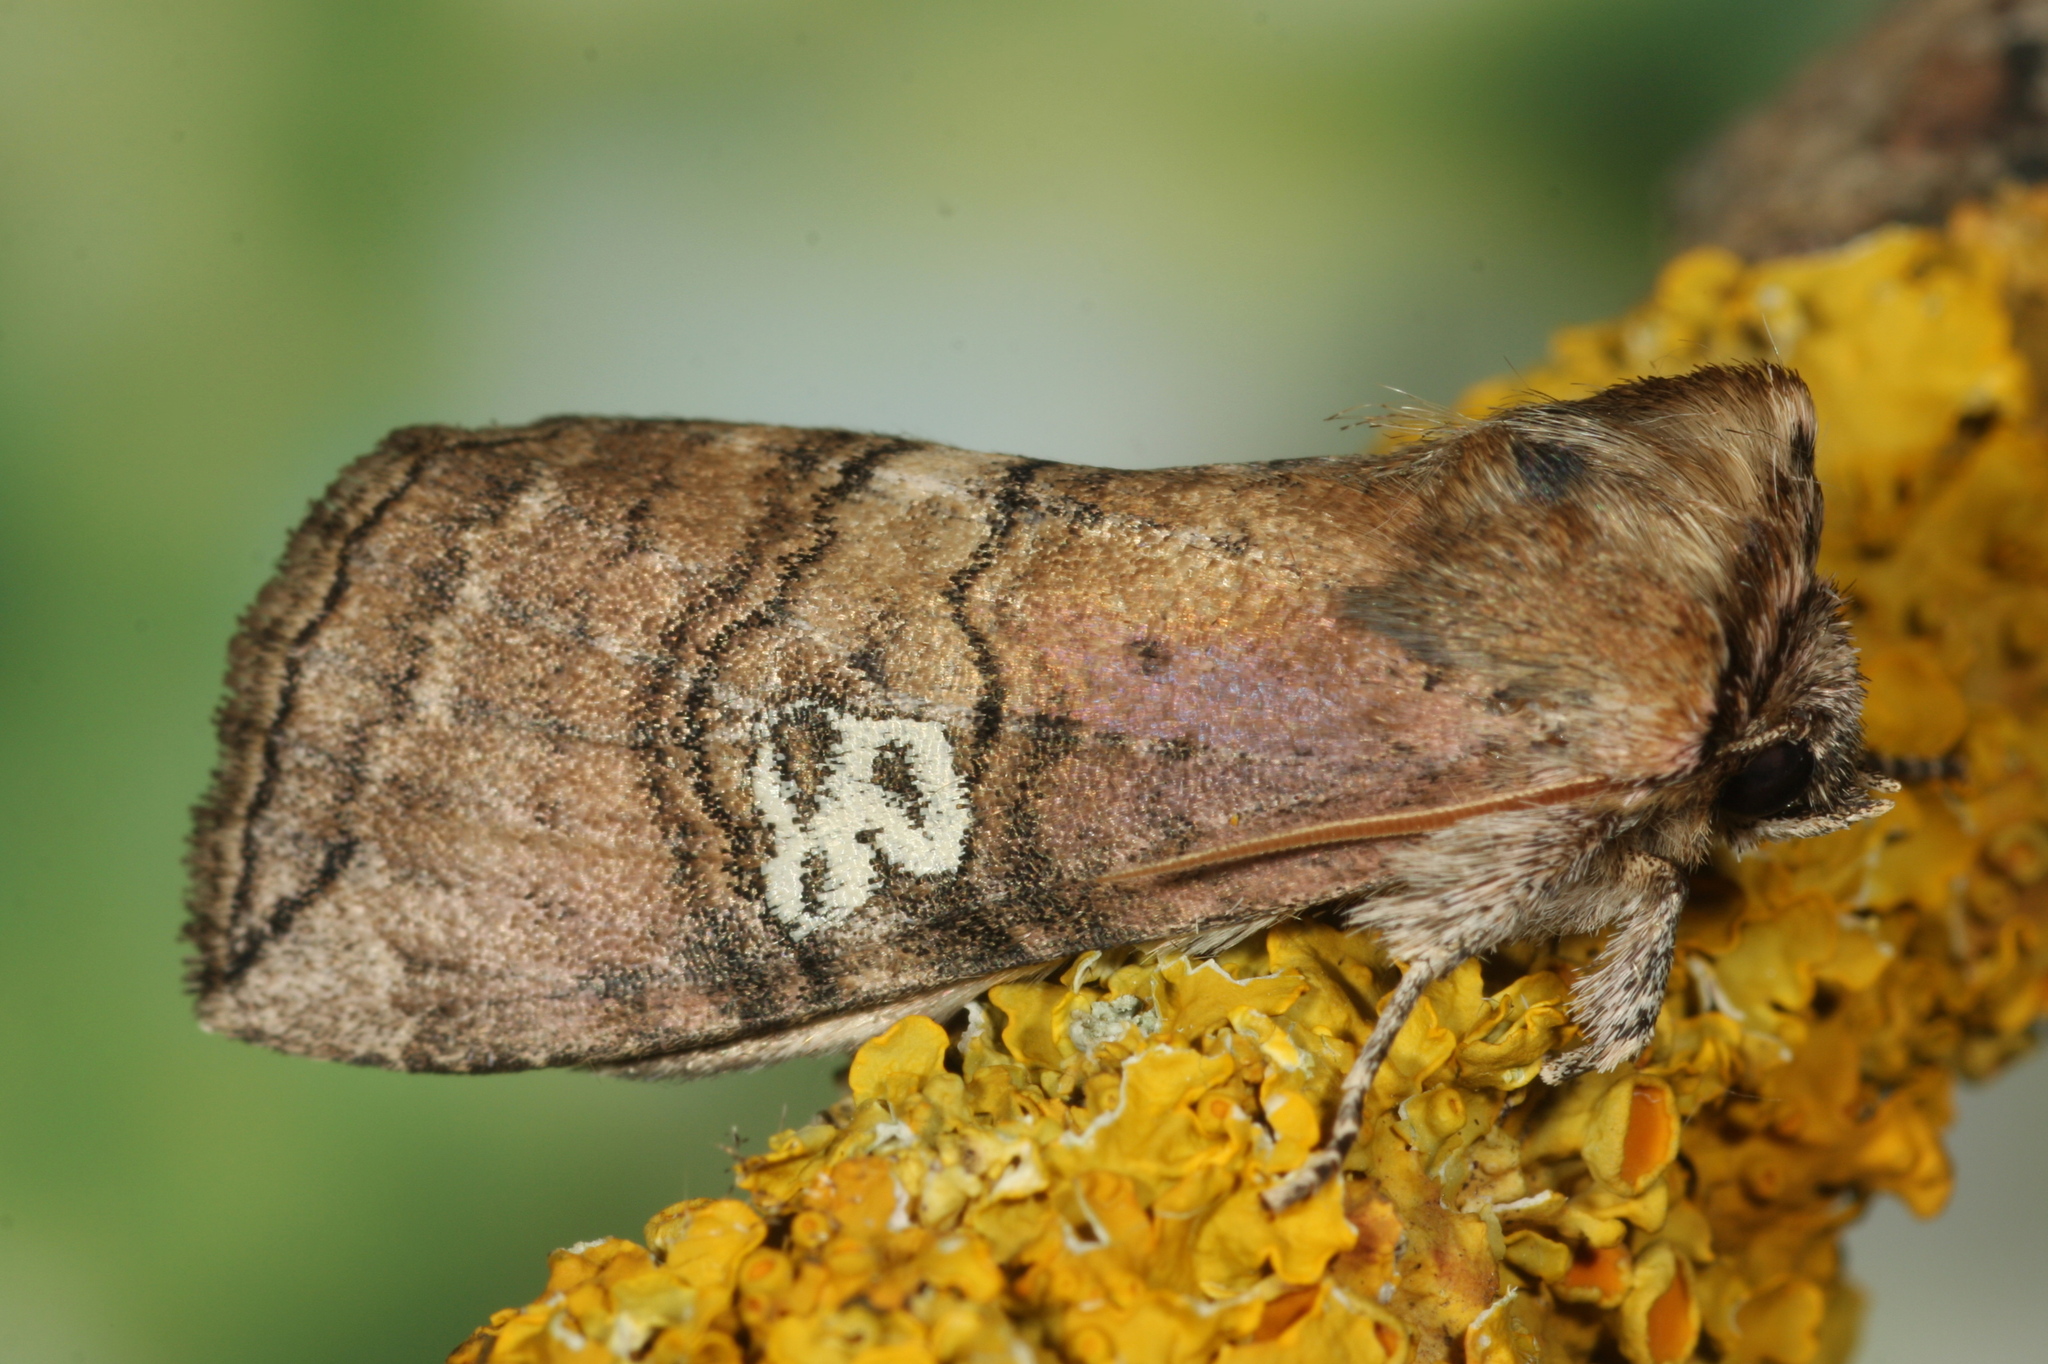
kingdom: Animalia
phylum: Arthropoda
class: Insecta
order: Lepidoptera
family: Drepanidae
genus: Tethea
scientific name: Tethea ocularis
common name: Figure of eighty
